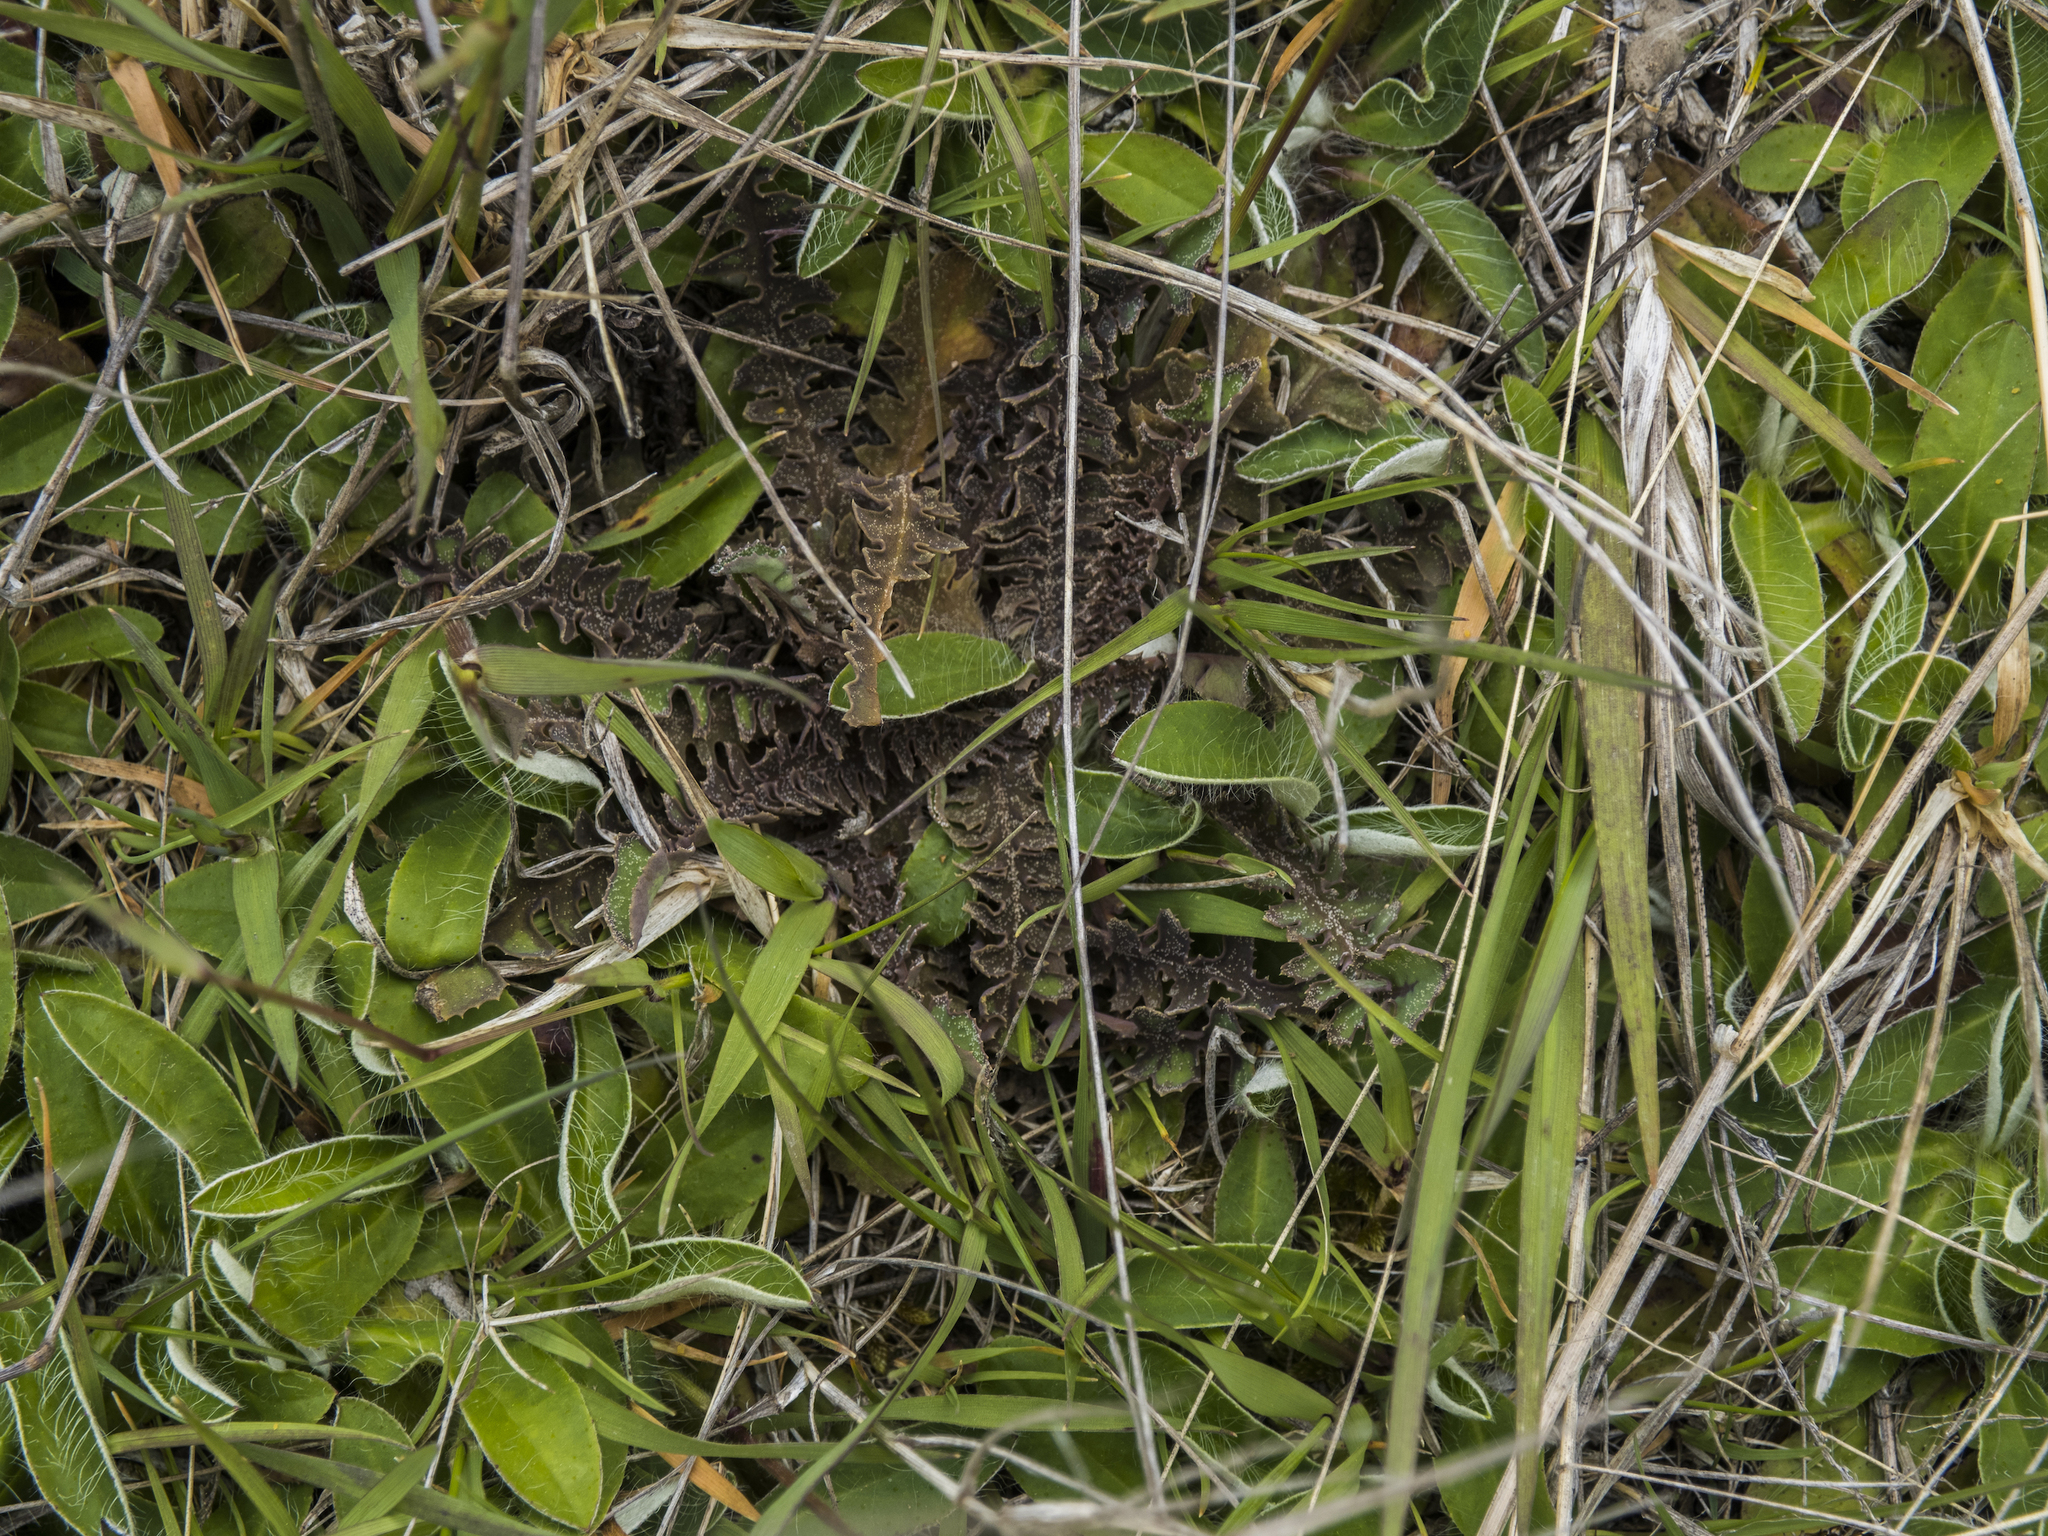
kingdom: Plantae
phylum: Tracheophyta
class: Magnoliopsida
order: Asterales
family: Asteraceae
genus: Sonchus
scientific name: Sonchus novae-zelandiae
